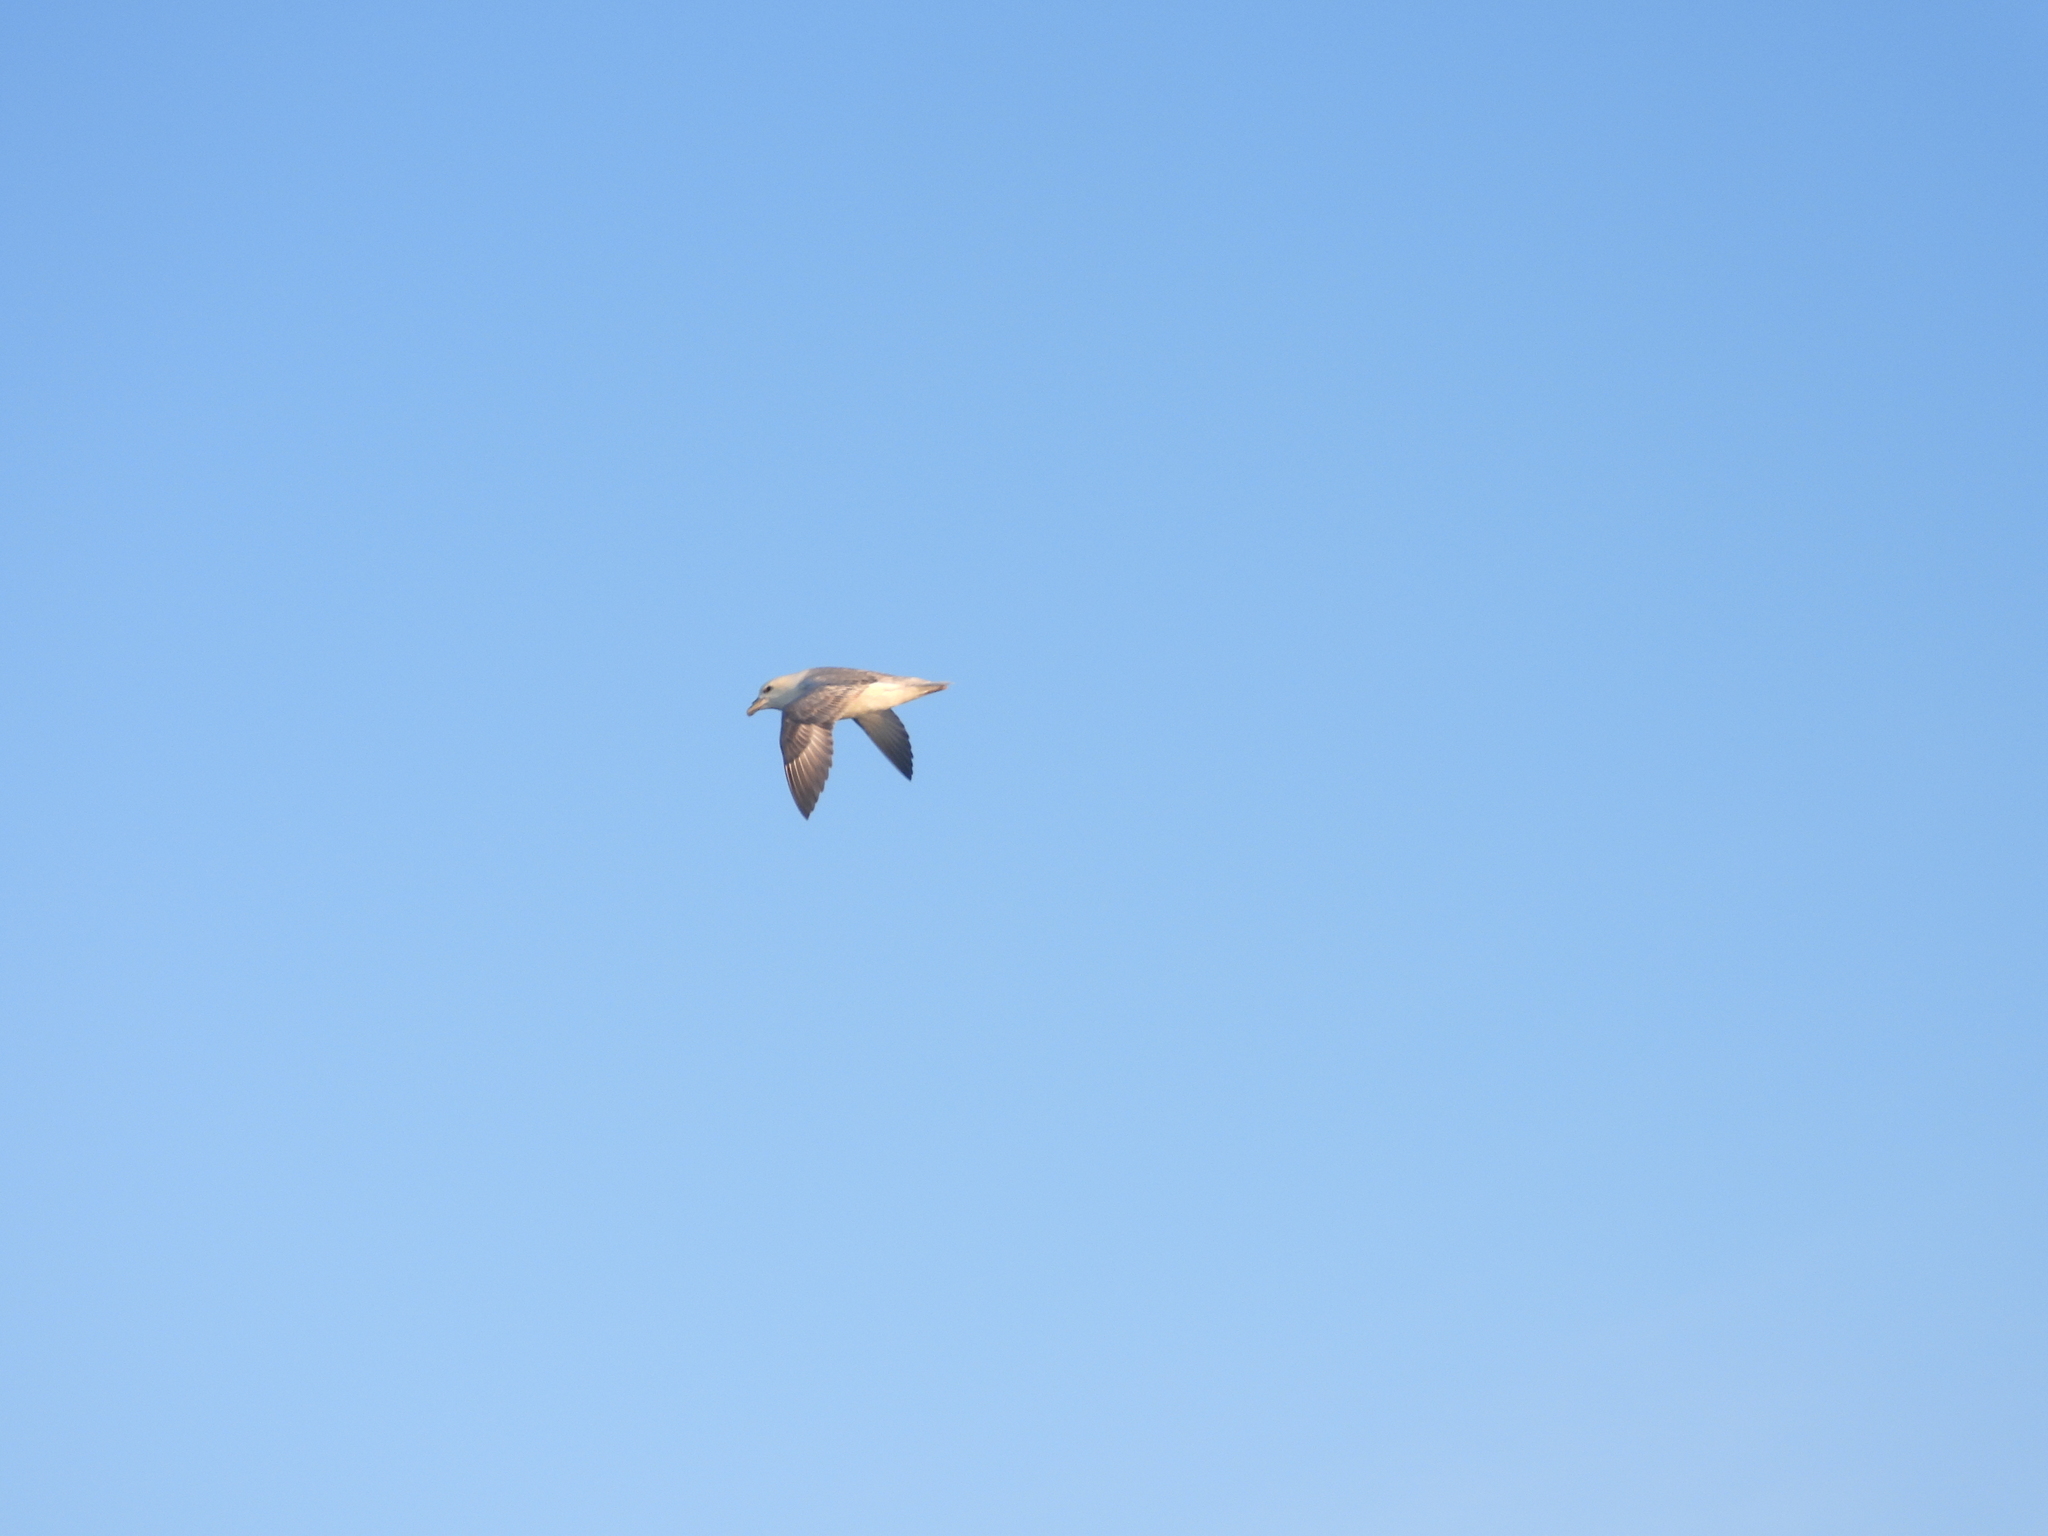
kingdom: Animalia
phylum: Chordata
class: Aves
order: Procellariiformes
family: Procellariidae
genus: Fulmarus
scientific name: Fulmarus glacialis
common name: Northern fulmar
